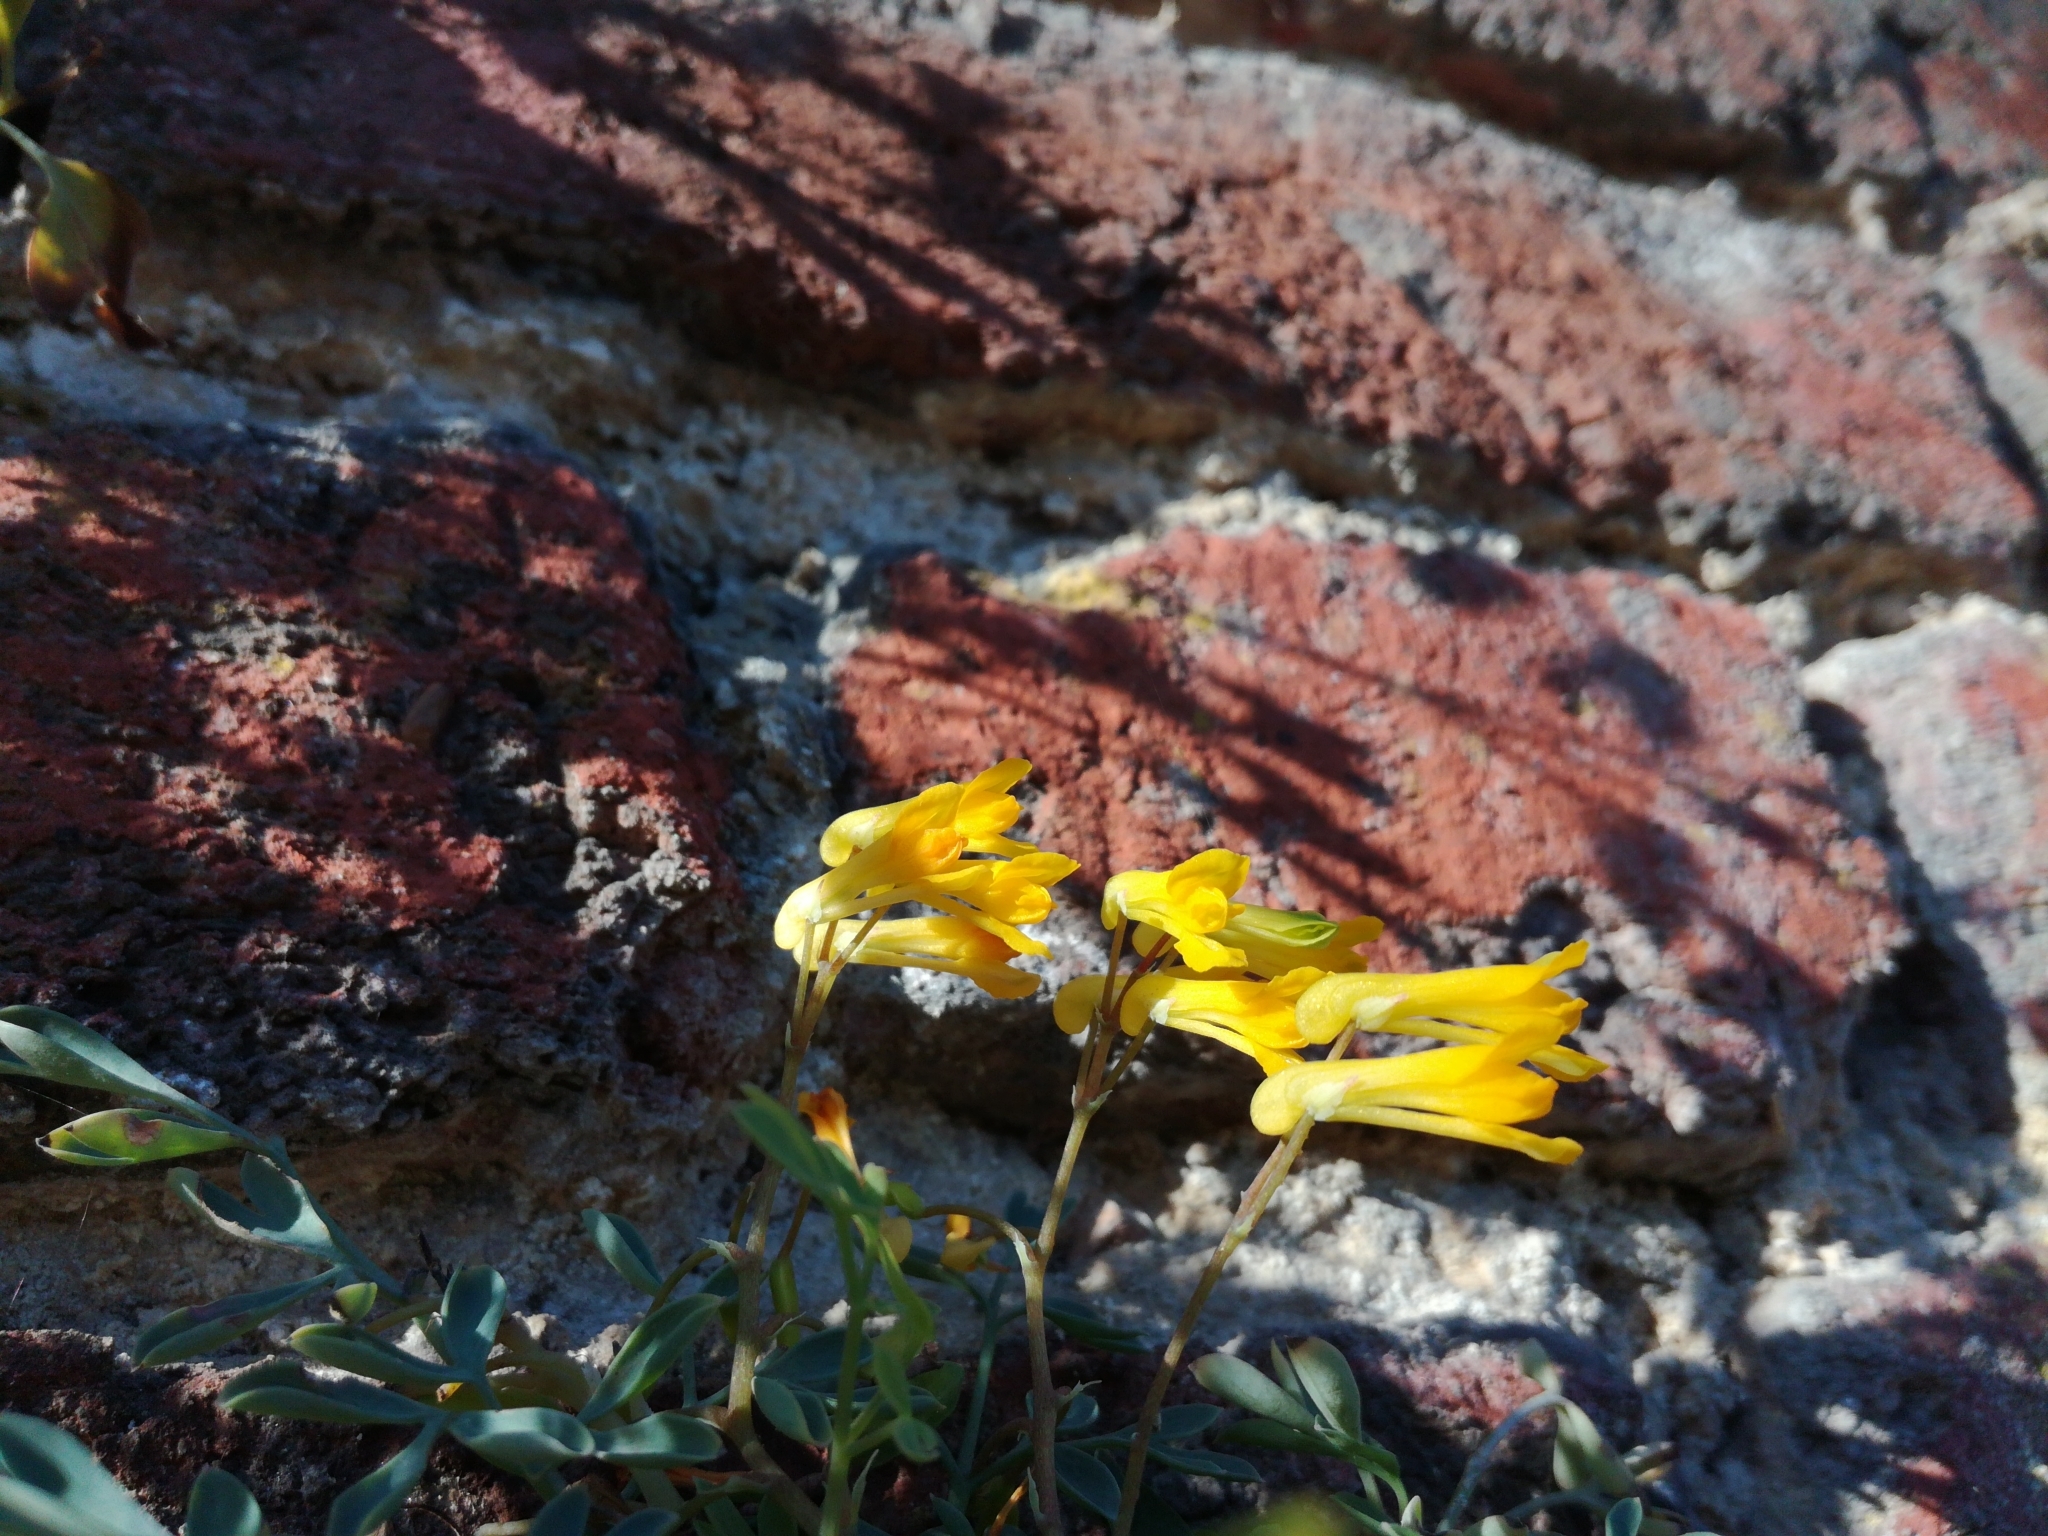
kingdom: Plantae
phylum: Tracheophyta
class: Magnoliopsida
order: Ranunculales
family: Papaveraceae
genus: Pseudofumaria
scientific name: Pseudofumaria lutea
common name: Yellow corydalis
